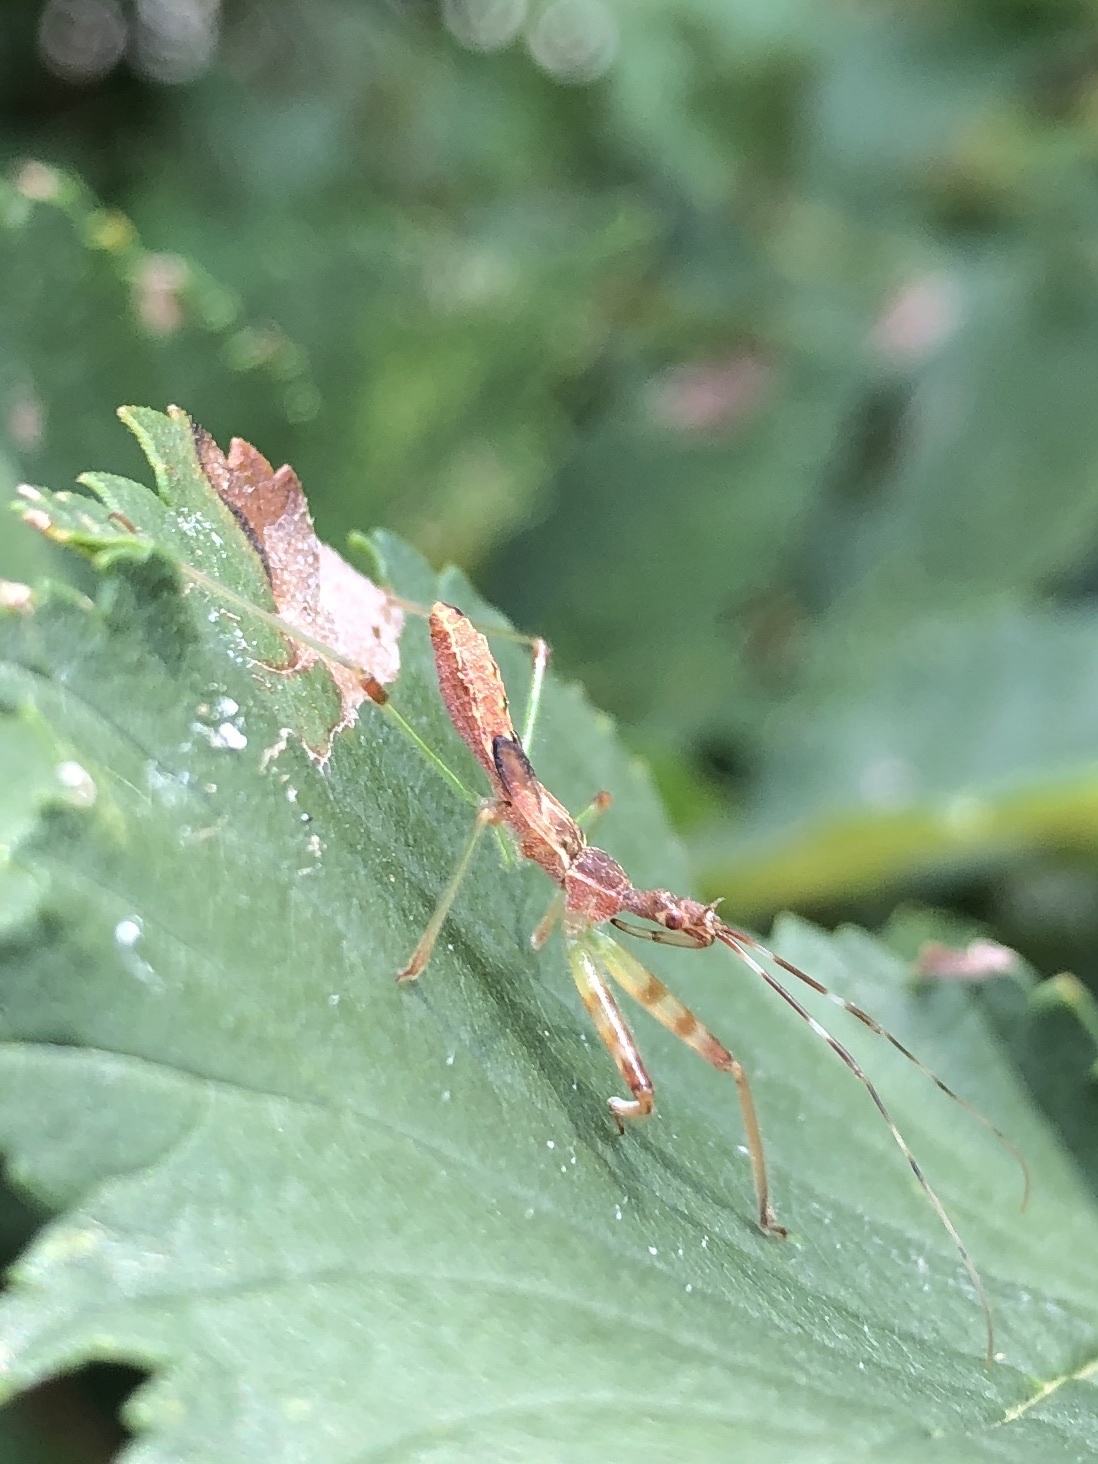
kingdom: Animalia
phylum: Arthropoda
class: Insecta
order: Hemiptera
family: Reduviidae
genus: Nagusta
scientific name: Nagusta goedelii
